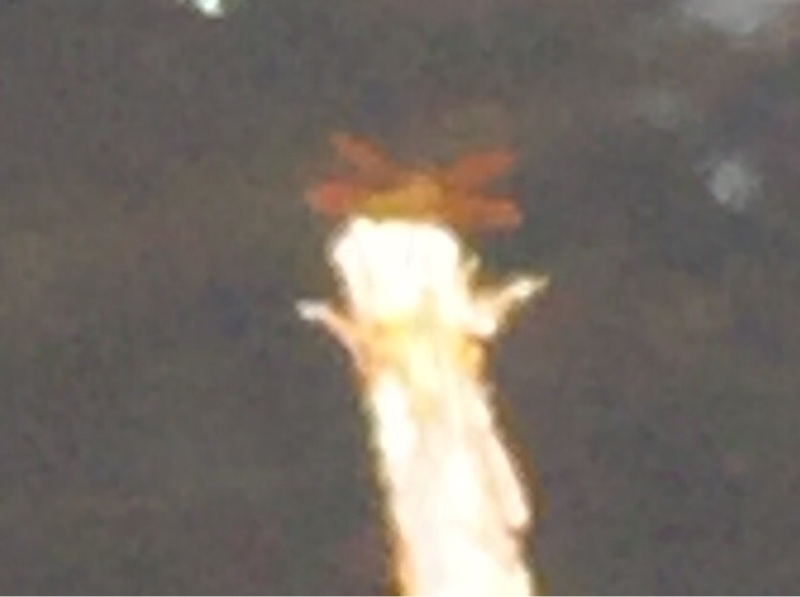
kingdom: Animalia
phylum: Arthropoda
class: Insecta
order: Odonata
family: Libellulidae
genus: Perithemis
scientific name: Perithemis domitia
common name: Slough amberwing
